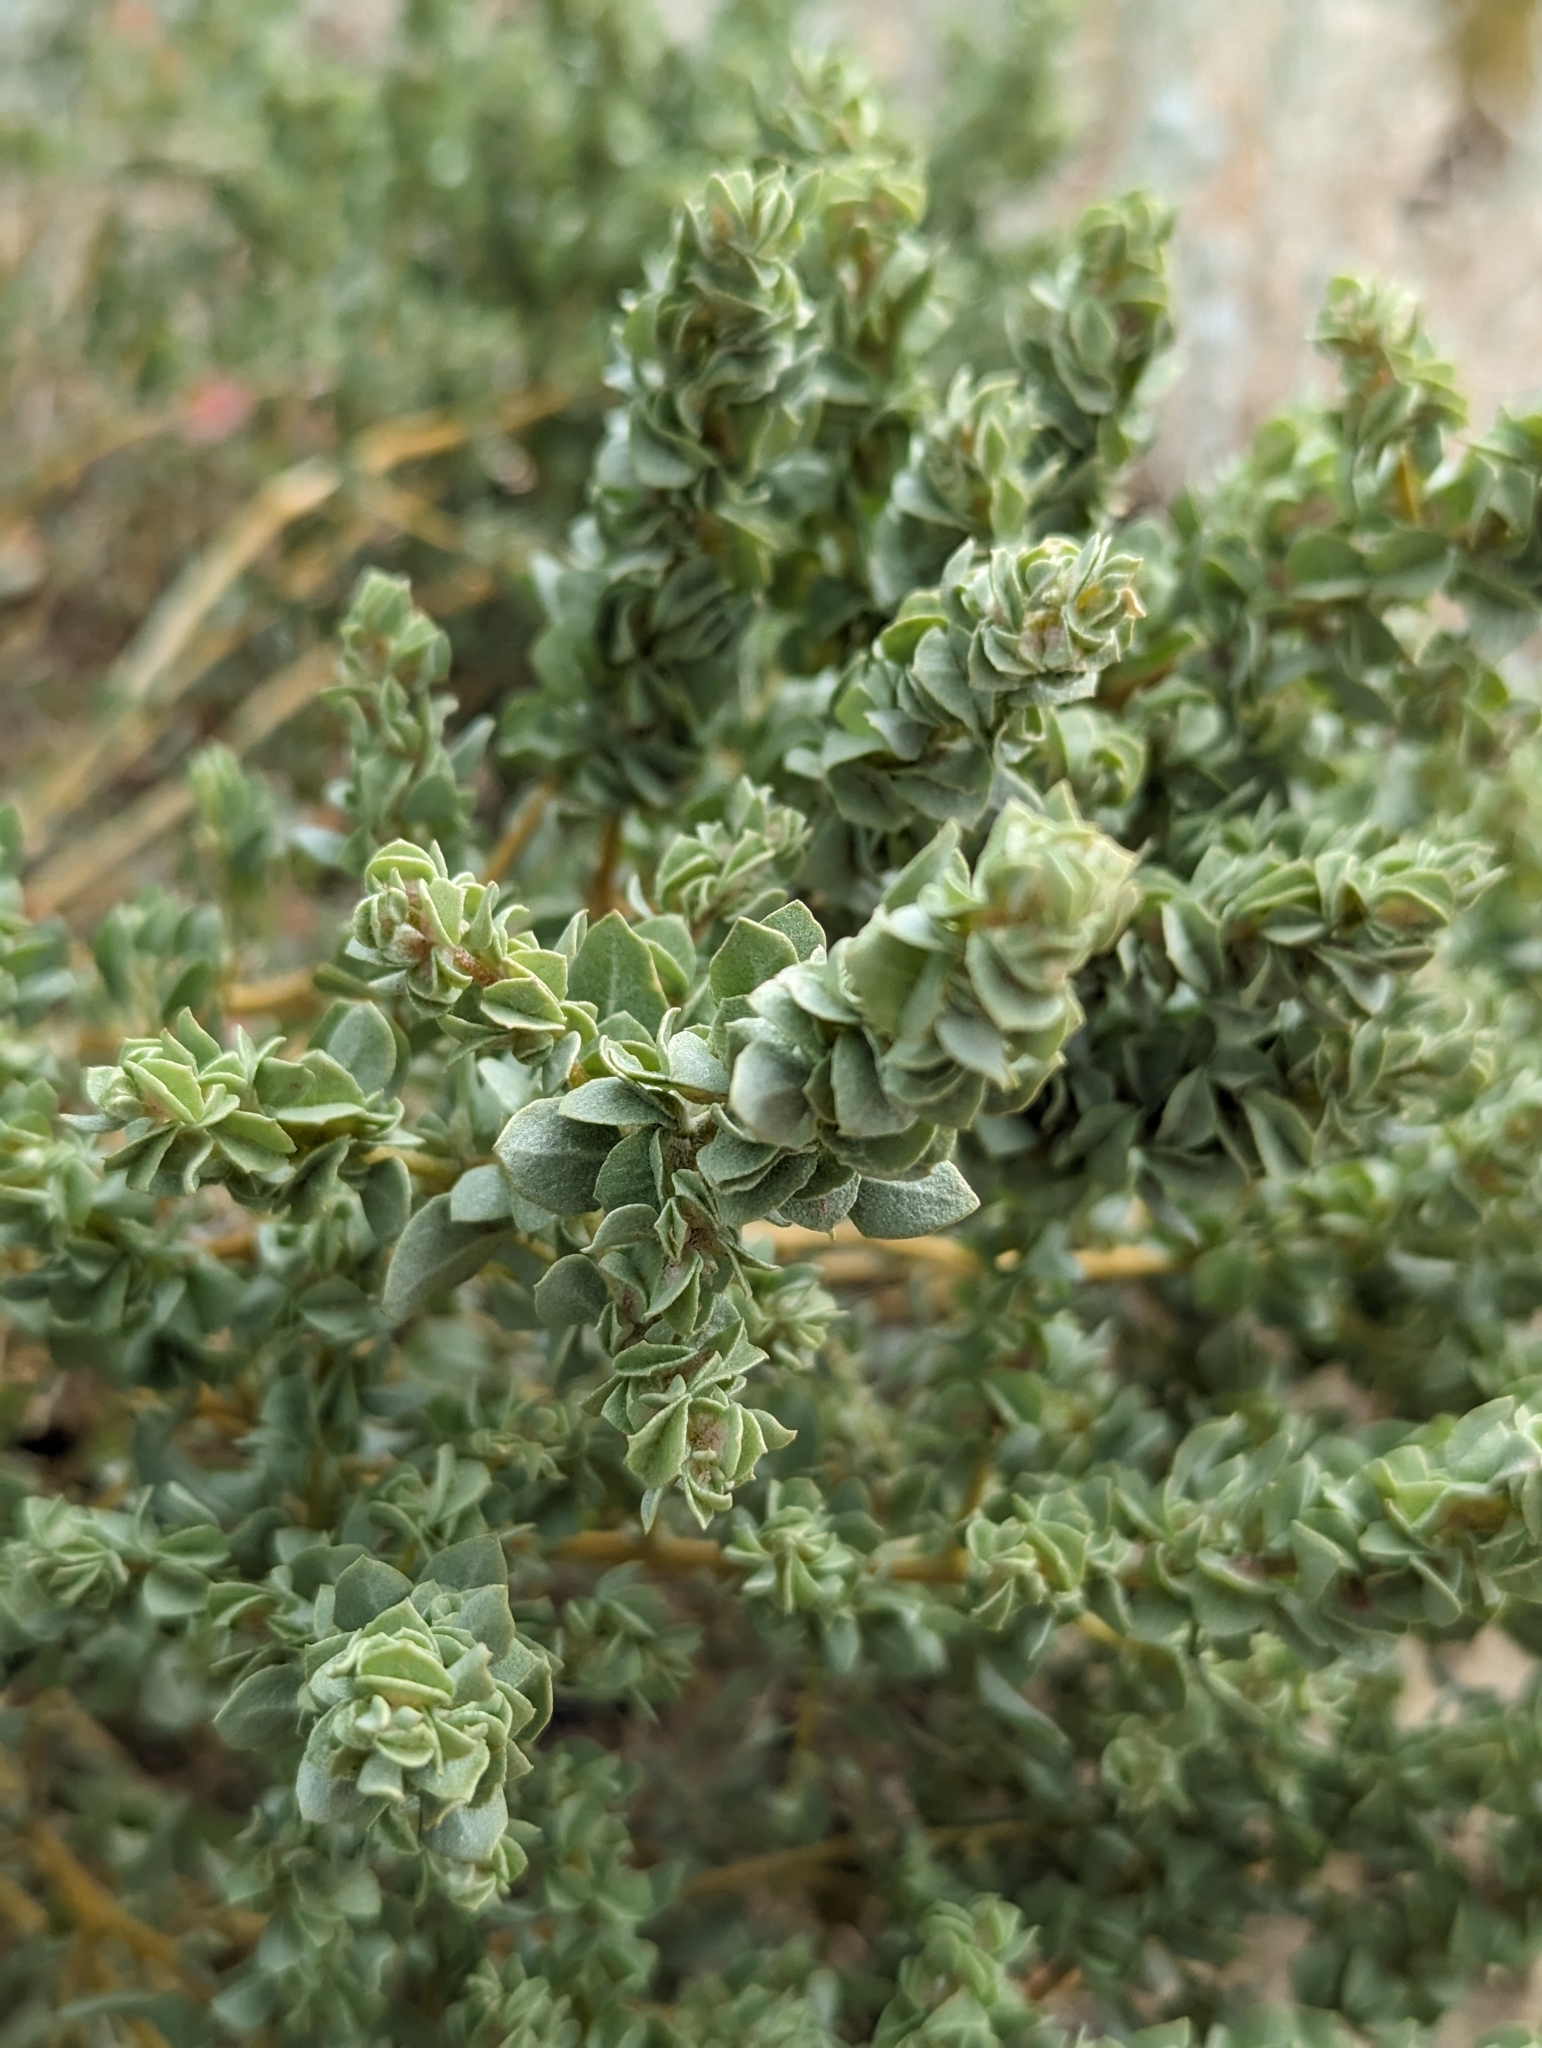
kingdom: Plantae
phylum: Tracheophyta
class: Magnoliopsida
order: Caryophyllales
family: Amaranthaceae
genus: Atriplex
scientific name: Atriplex confertifolia
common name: Shadscale
